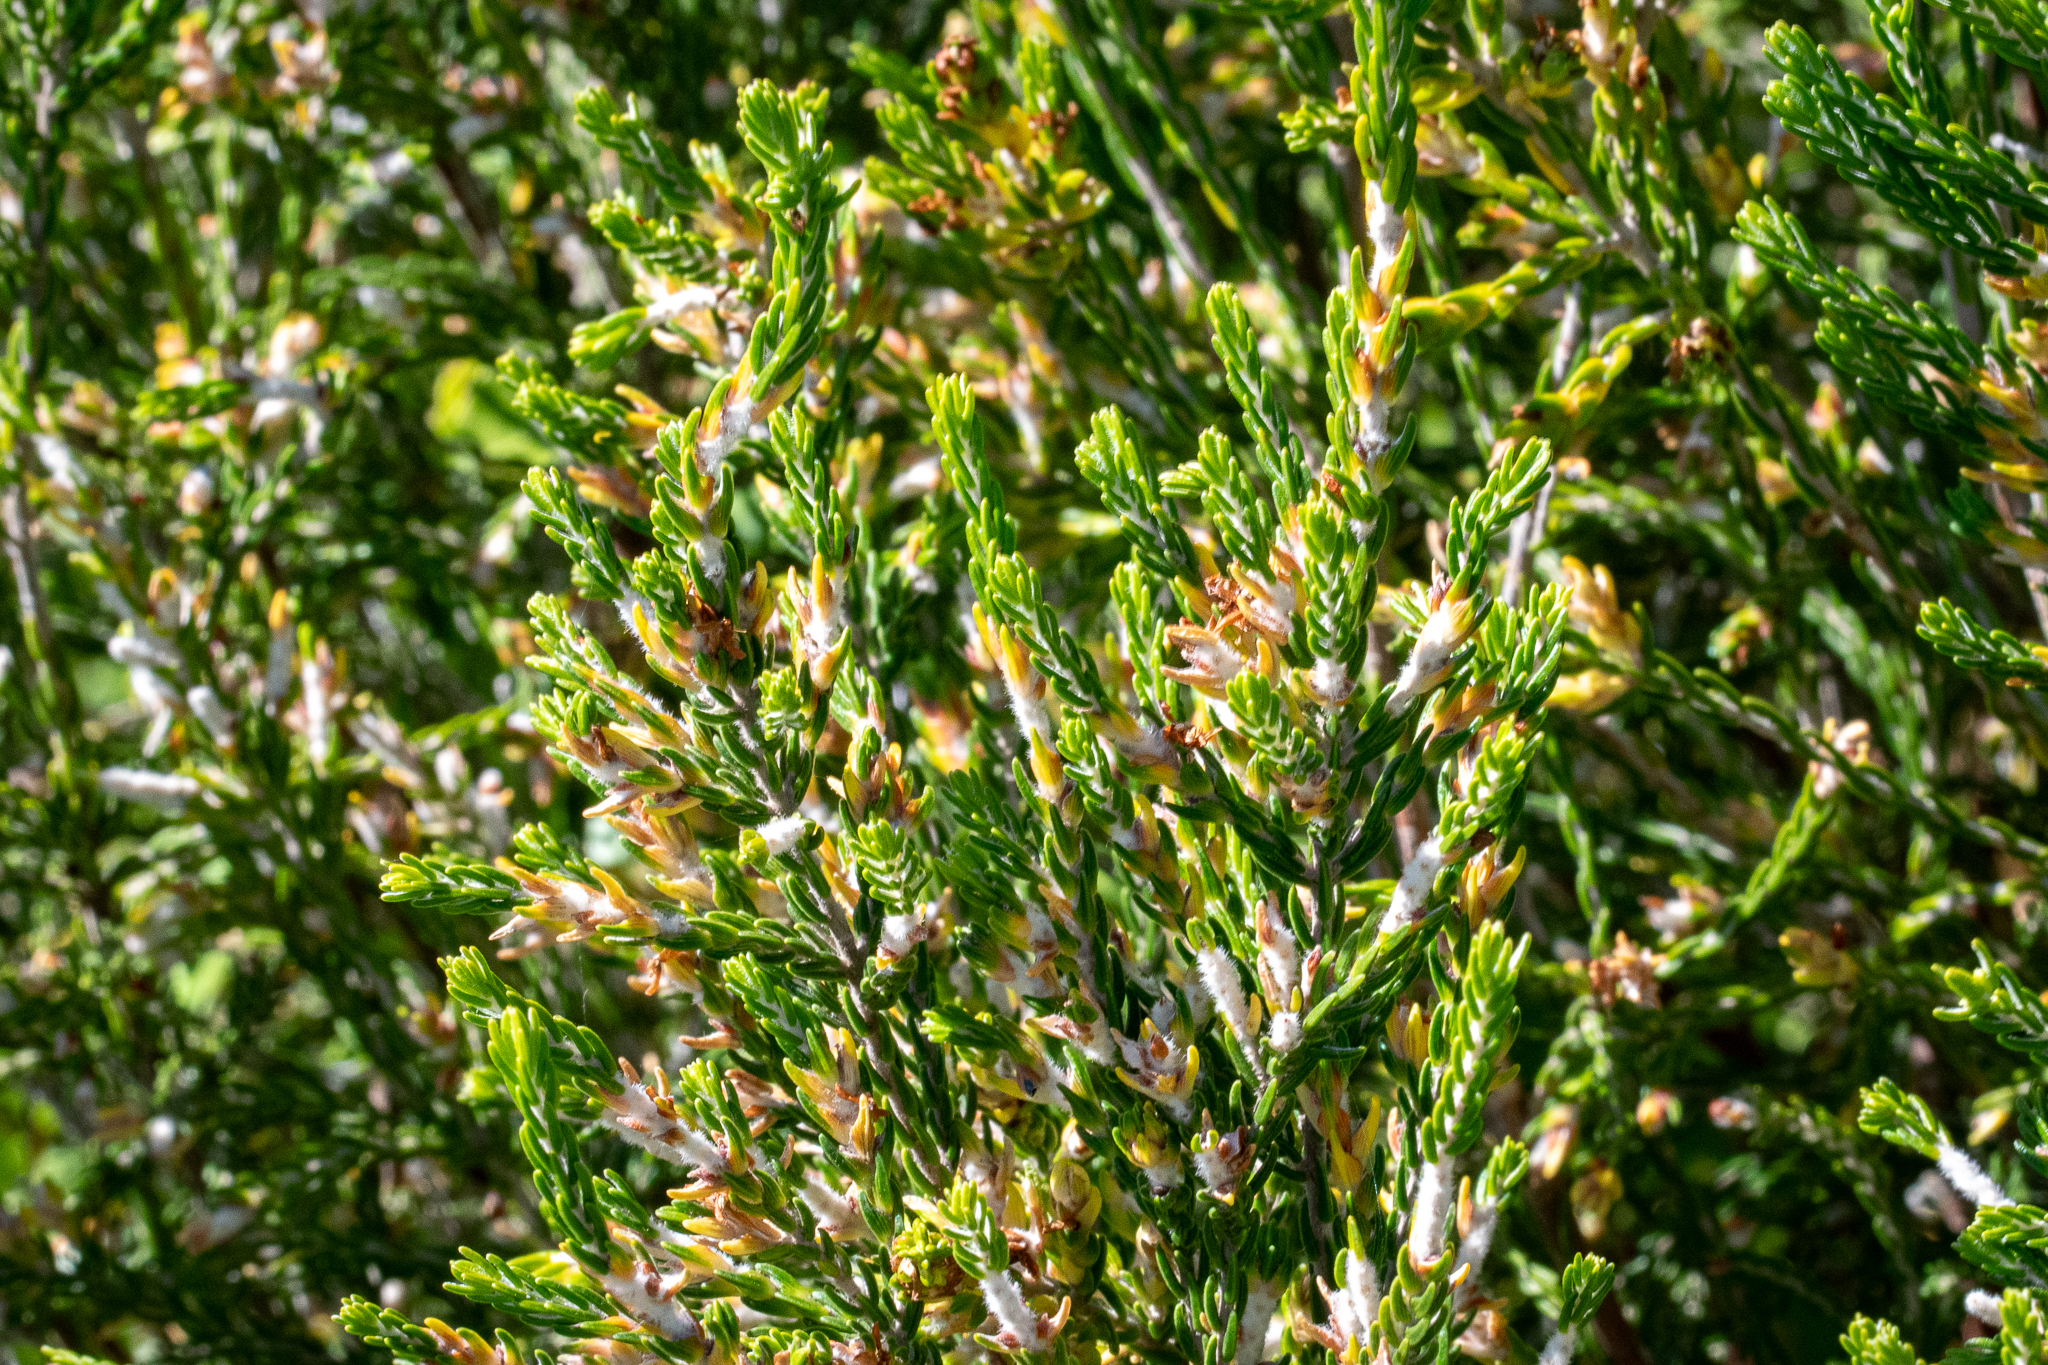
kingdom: Plantae
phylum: Tracheophyta
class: Magnoliopsida
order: Malvales
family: Thymelaeaceae
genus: Passerina
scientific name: Passerina corymbosa
